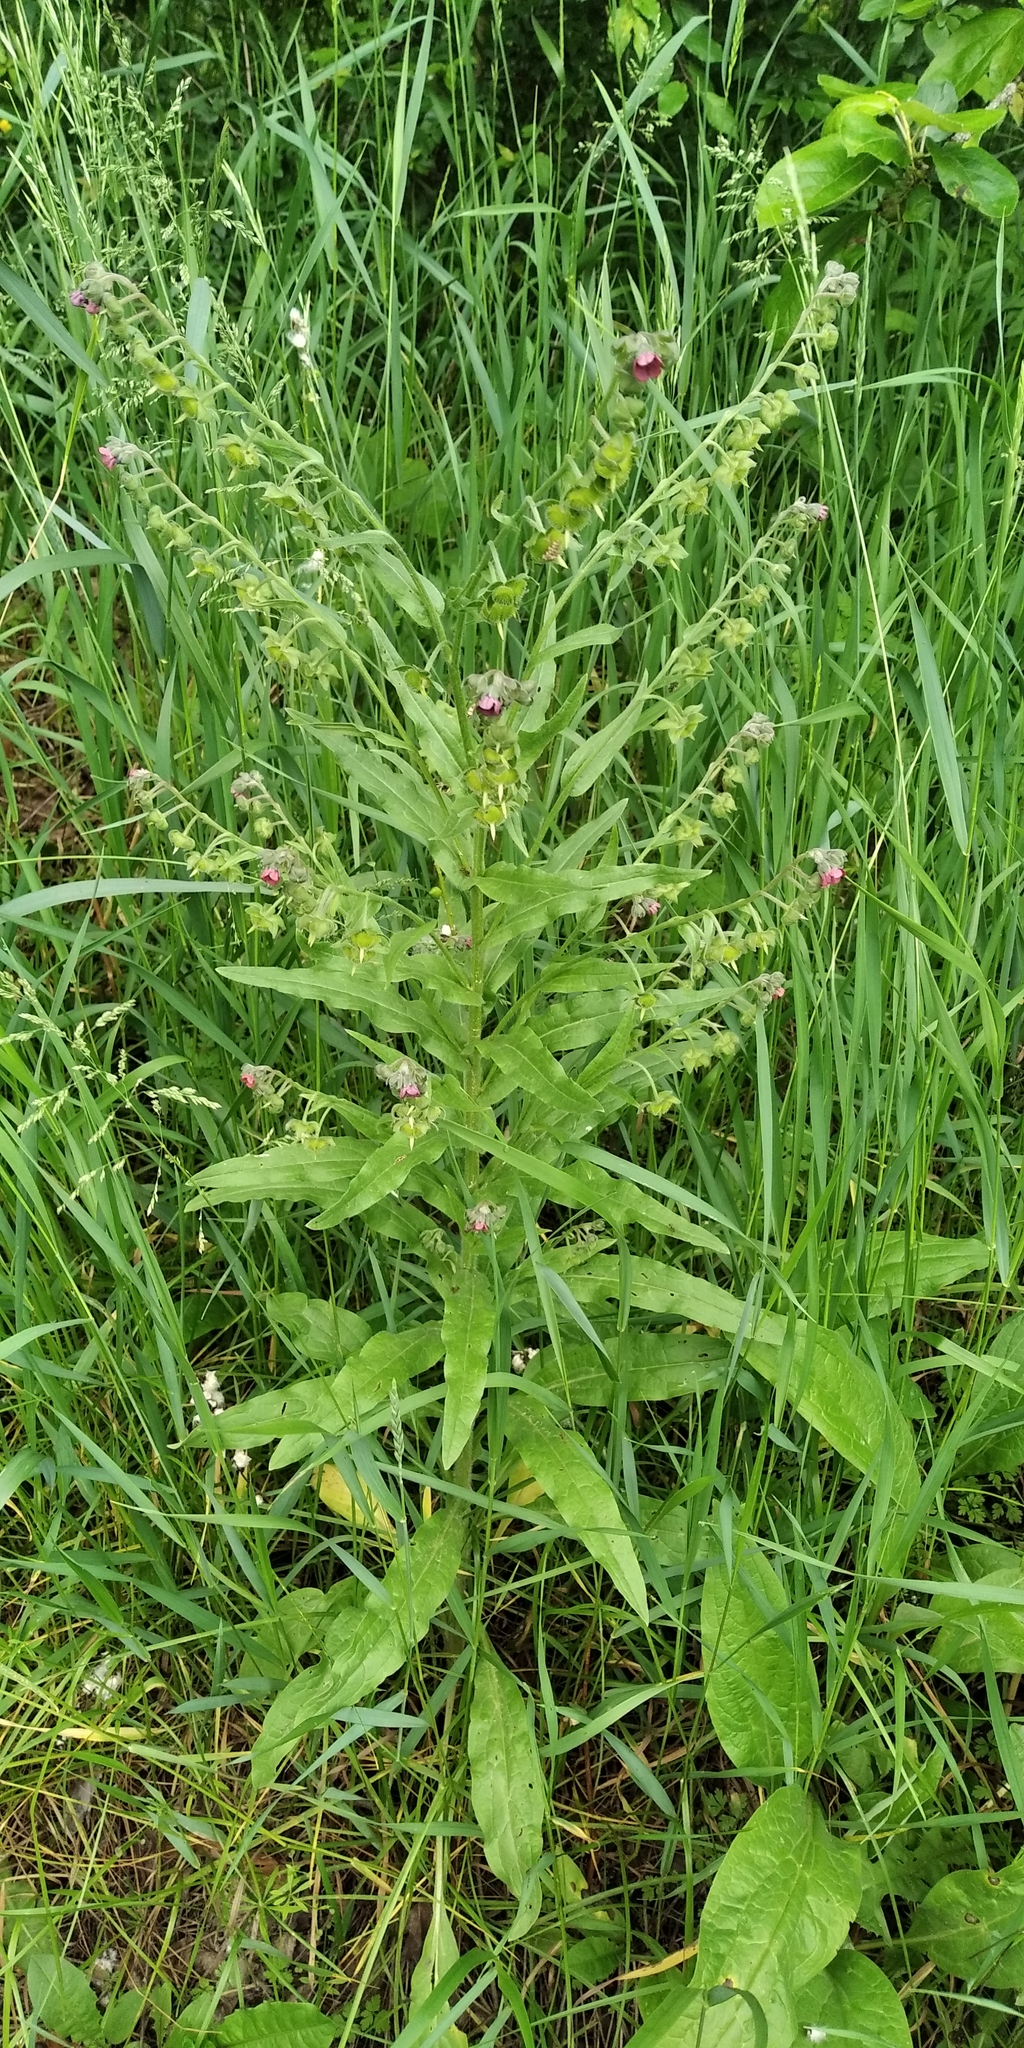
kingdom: Plantae
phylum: Tracheophyta
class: Magnoliopsida
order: Boraginales
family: Boraginaceae
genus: Cynoglossum
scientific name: Cynoglossum officinale
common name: Hound's-tongue
